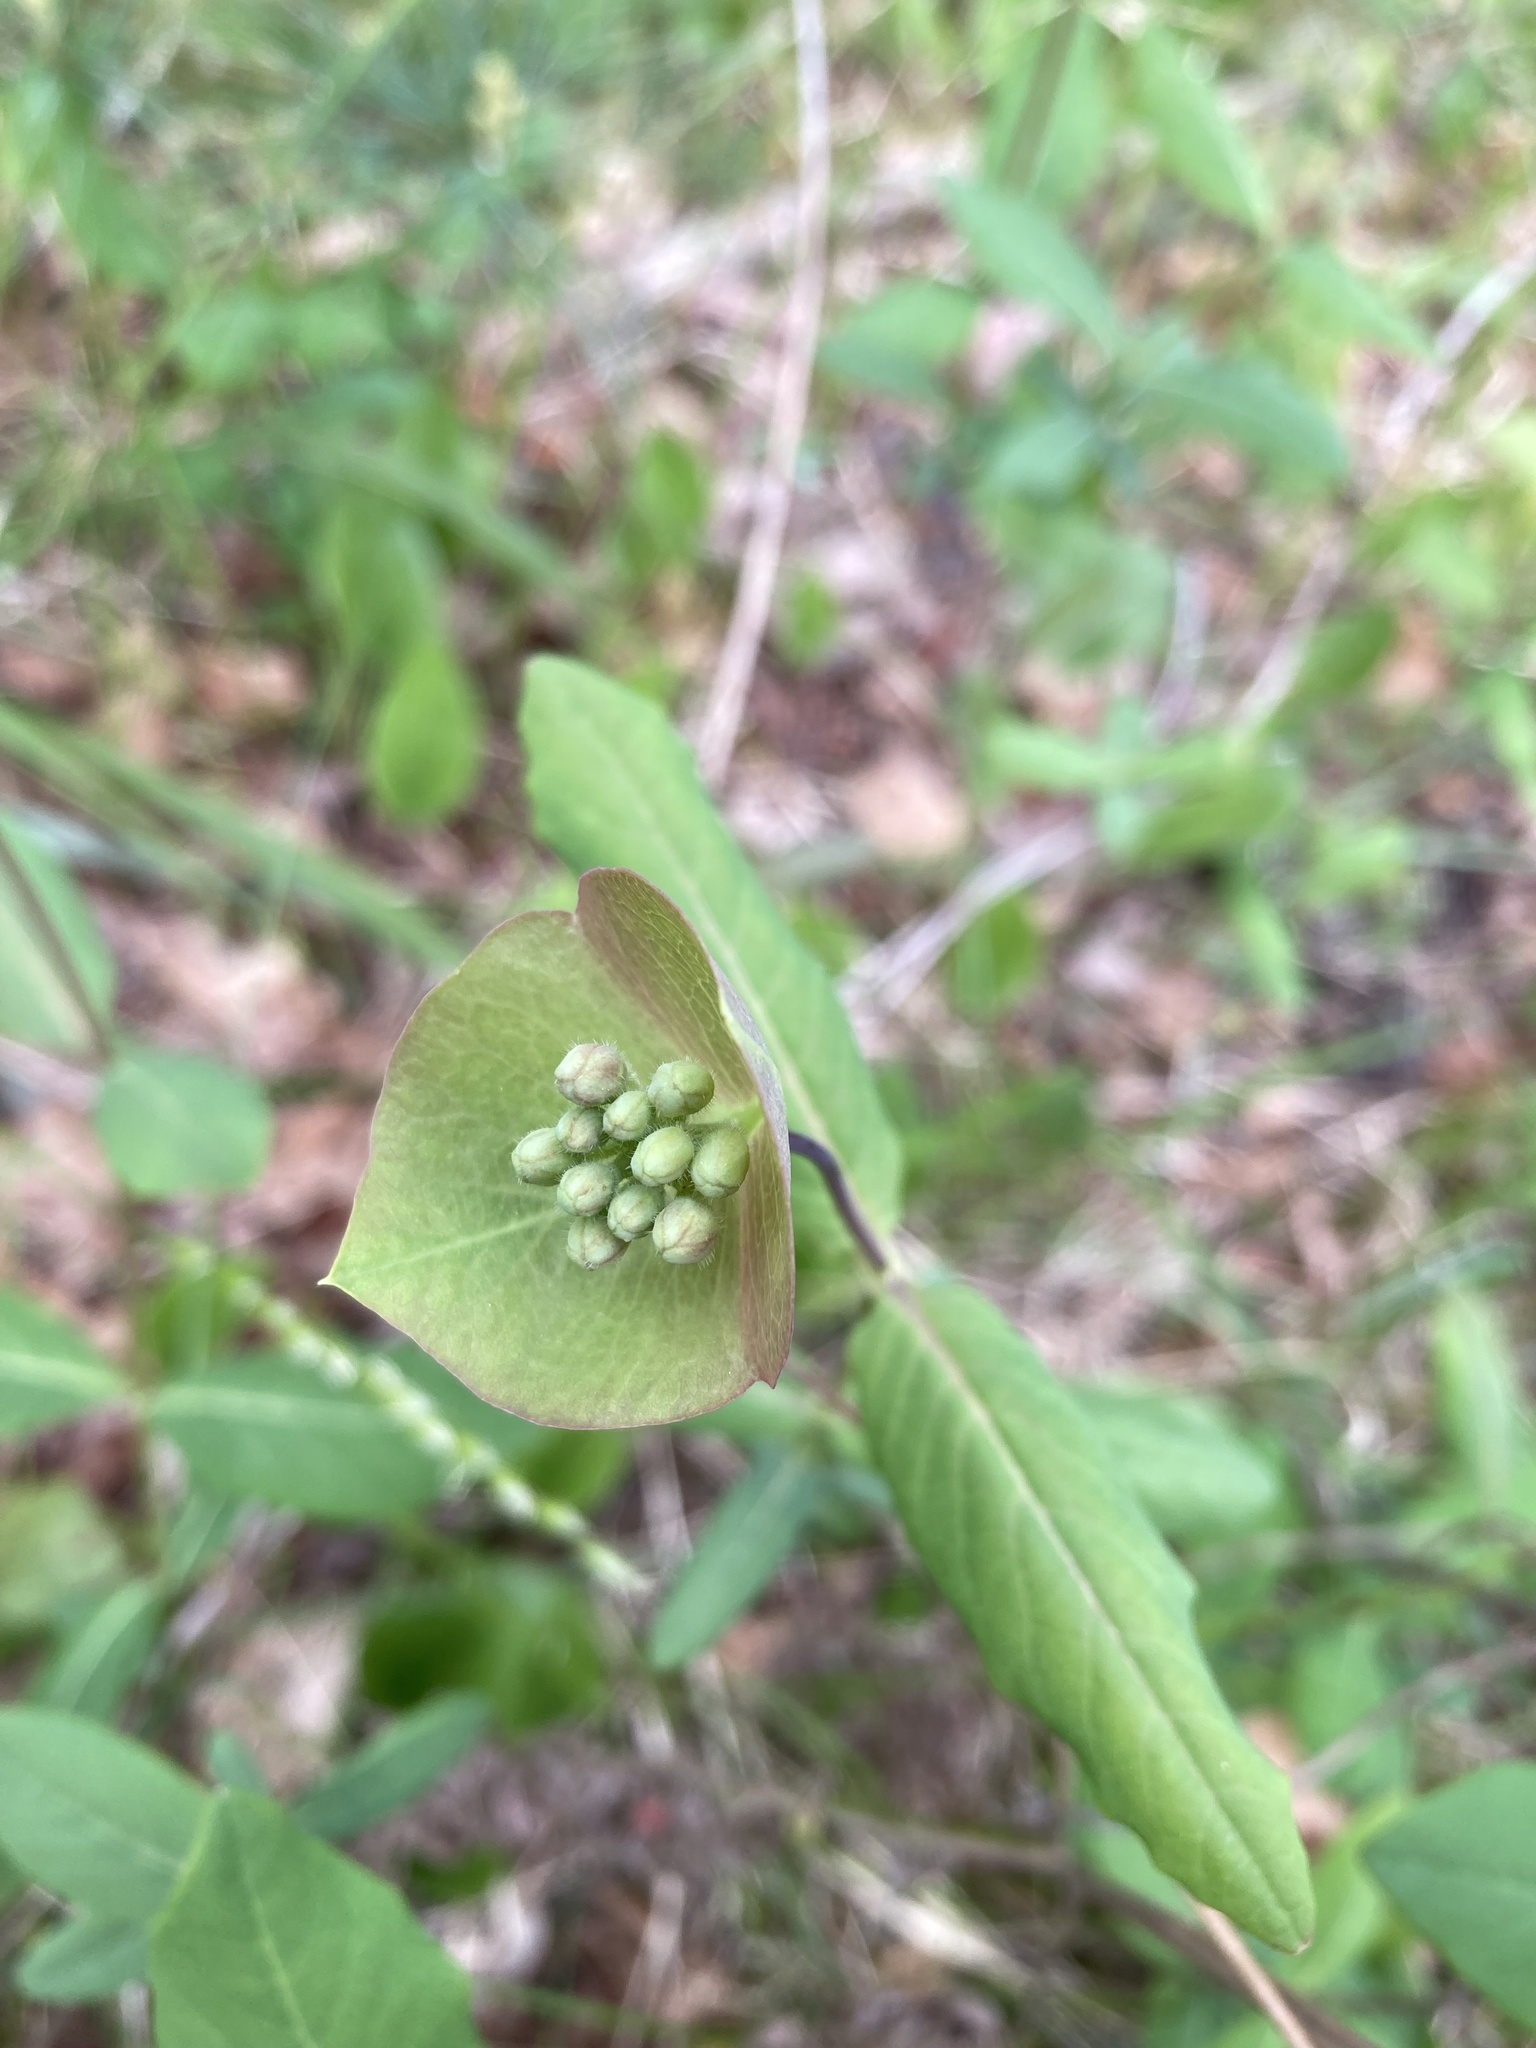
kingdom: Plantae
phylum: Tracheophyta
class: Magnoliopsida
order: Dipsacales
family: Caprifoliaceae
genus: Lonicera
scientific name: Lonicera dioica
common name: Limber honeysuckle
